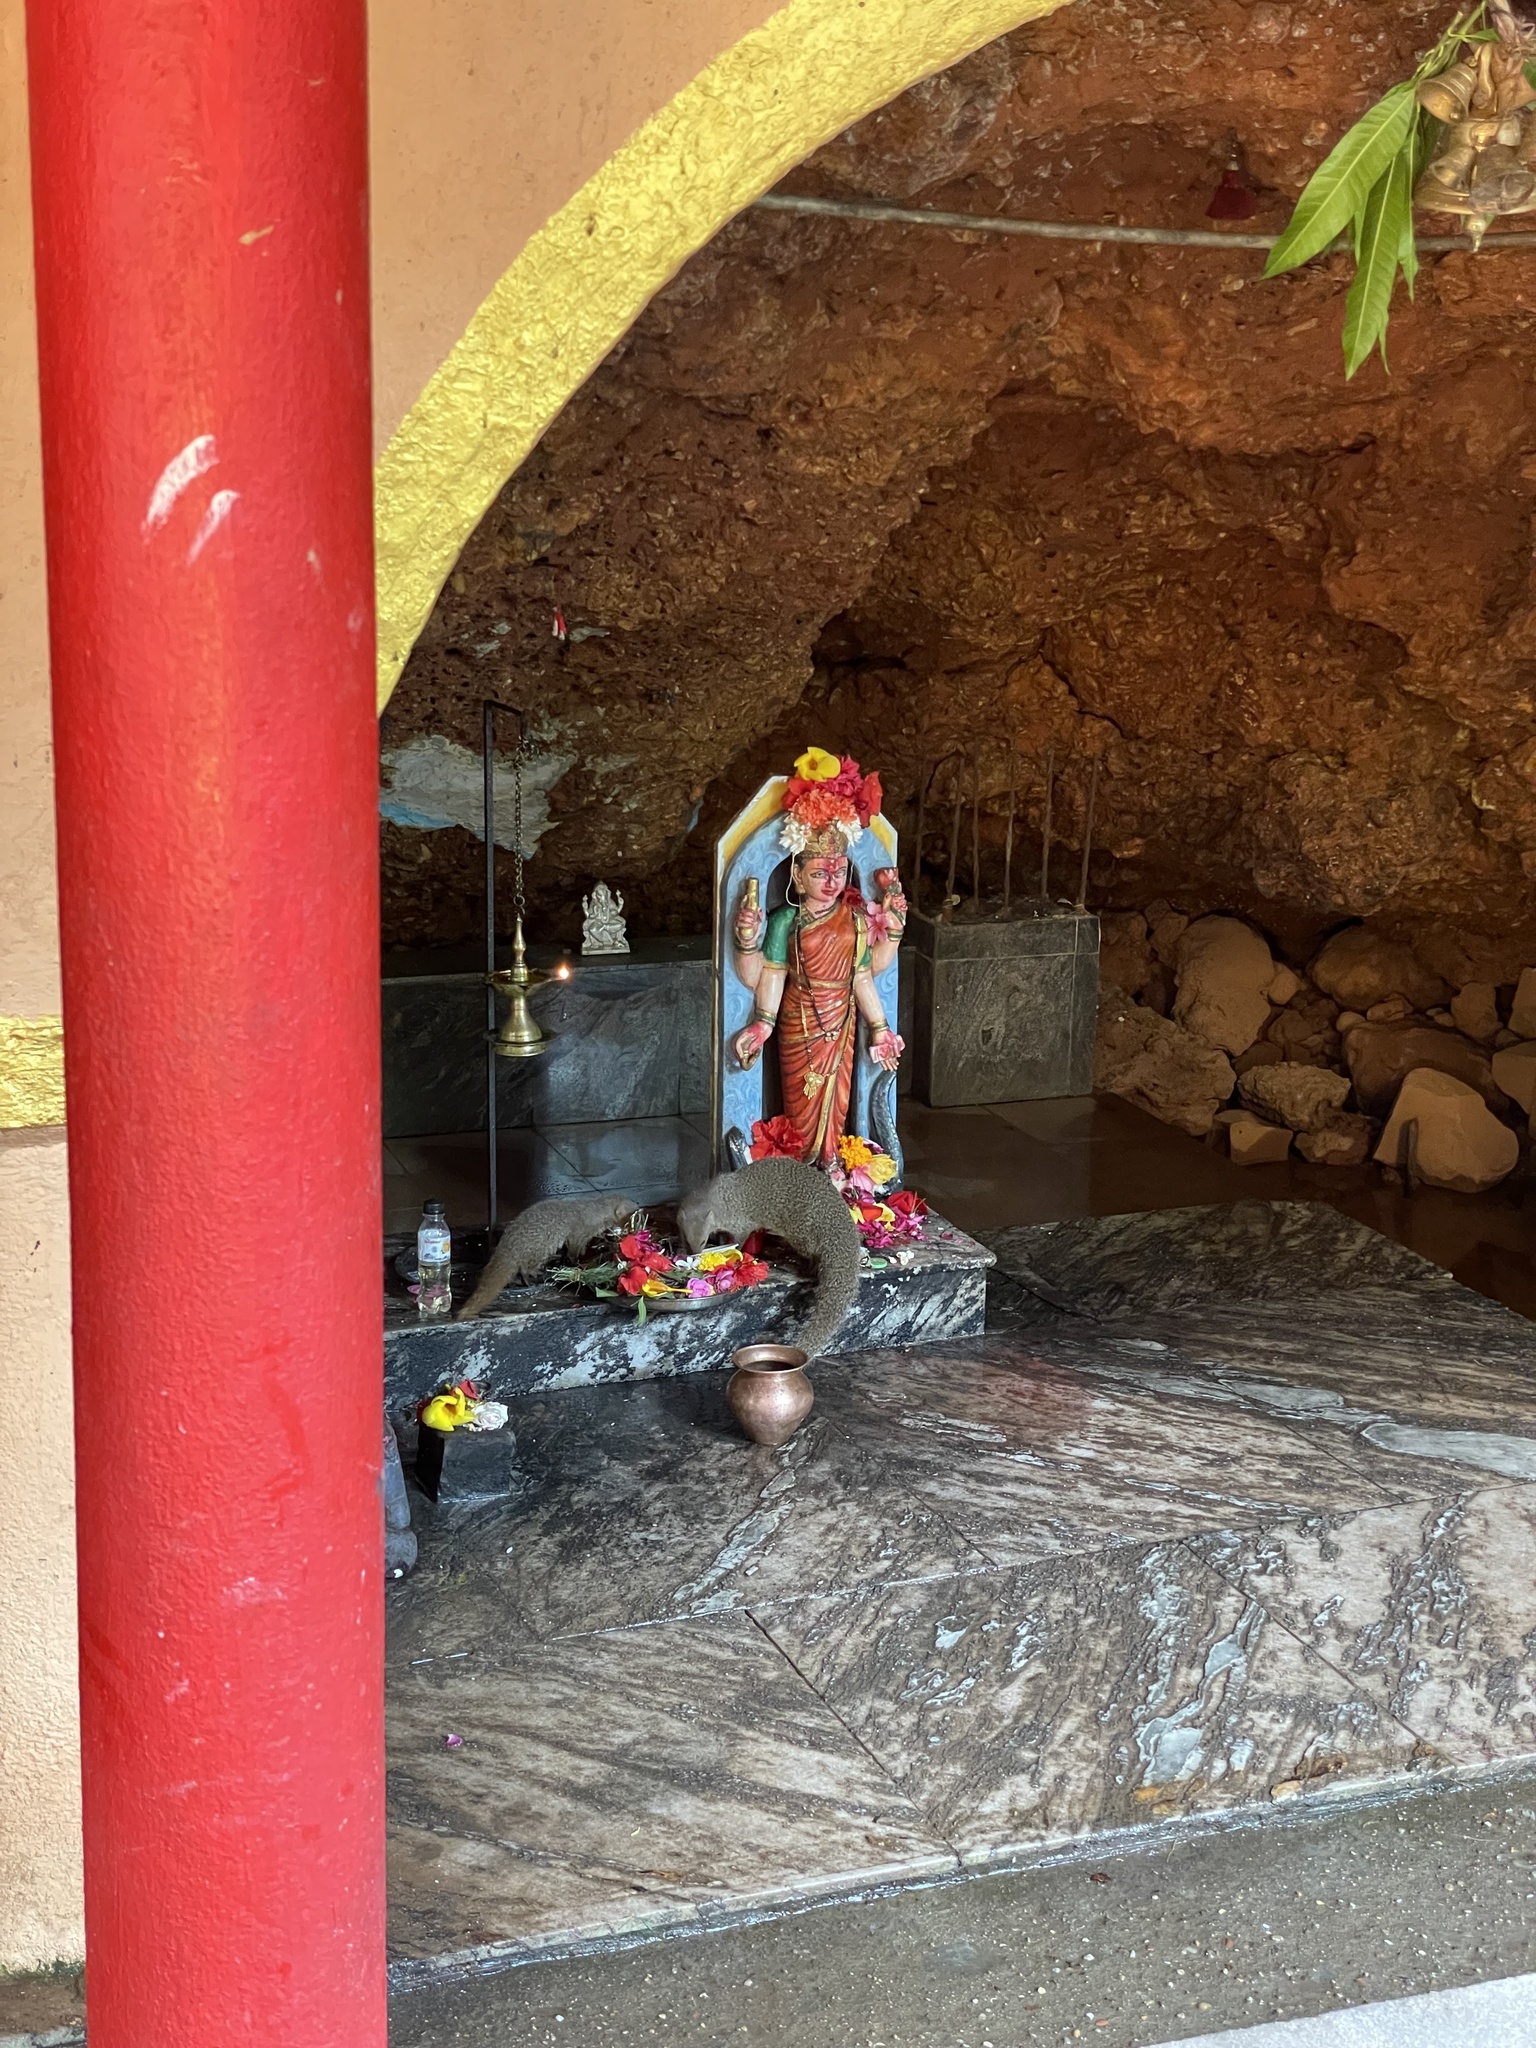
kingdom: Animalia
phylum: Chordata
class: Mammalia
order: Carnivora
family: Herpestidae
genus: Herpestes
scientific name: Herpestes edwardsi
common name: Indian gray mongoose
